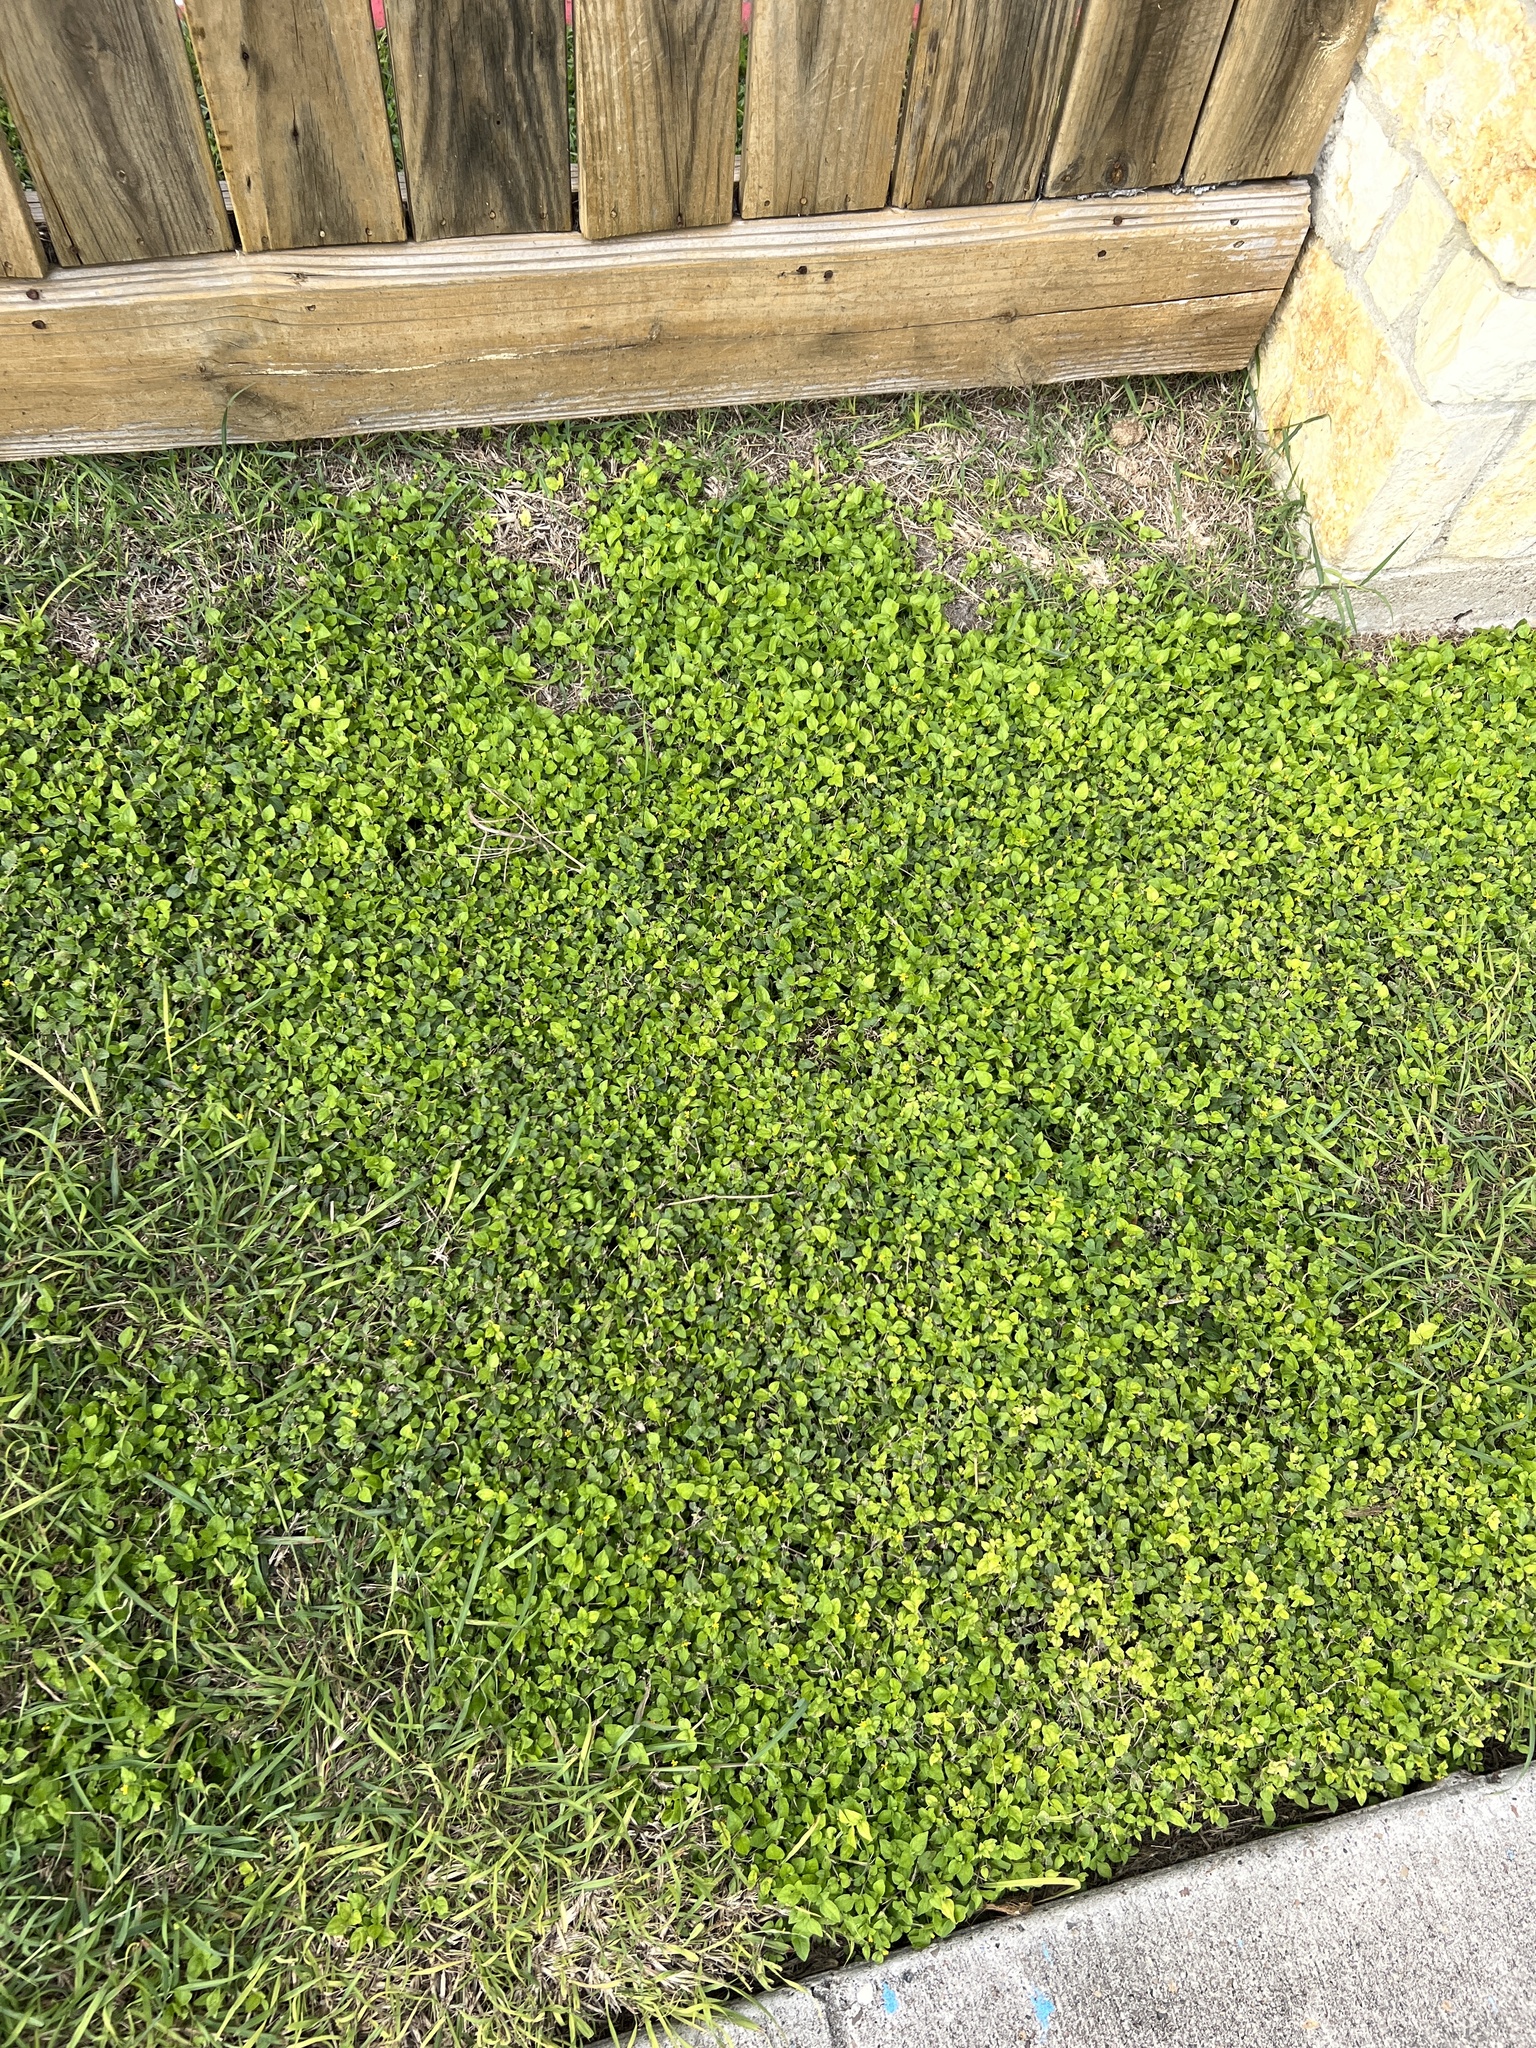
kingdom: Plantae
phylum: Tracheophyta
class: Magnoliopsida
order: Asterales
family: Asteraceae
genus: Calyptocarpus
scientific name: Calyptocarpus vialis
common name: Straggler daisy
